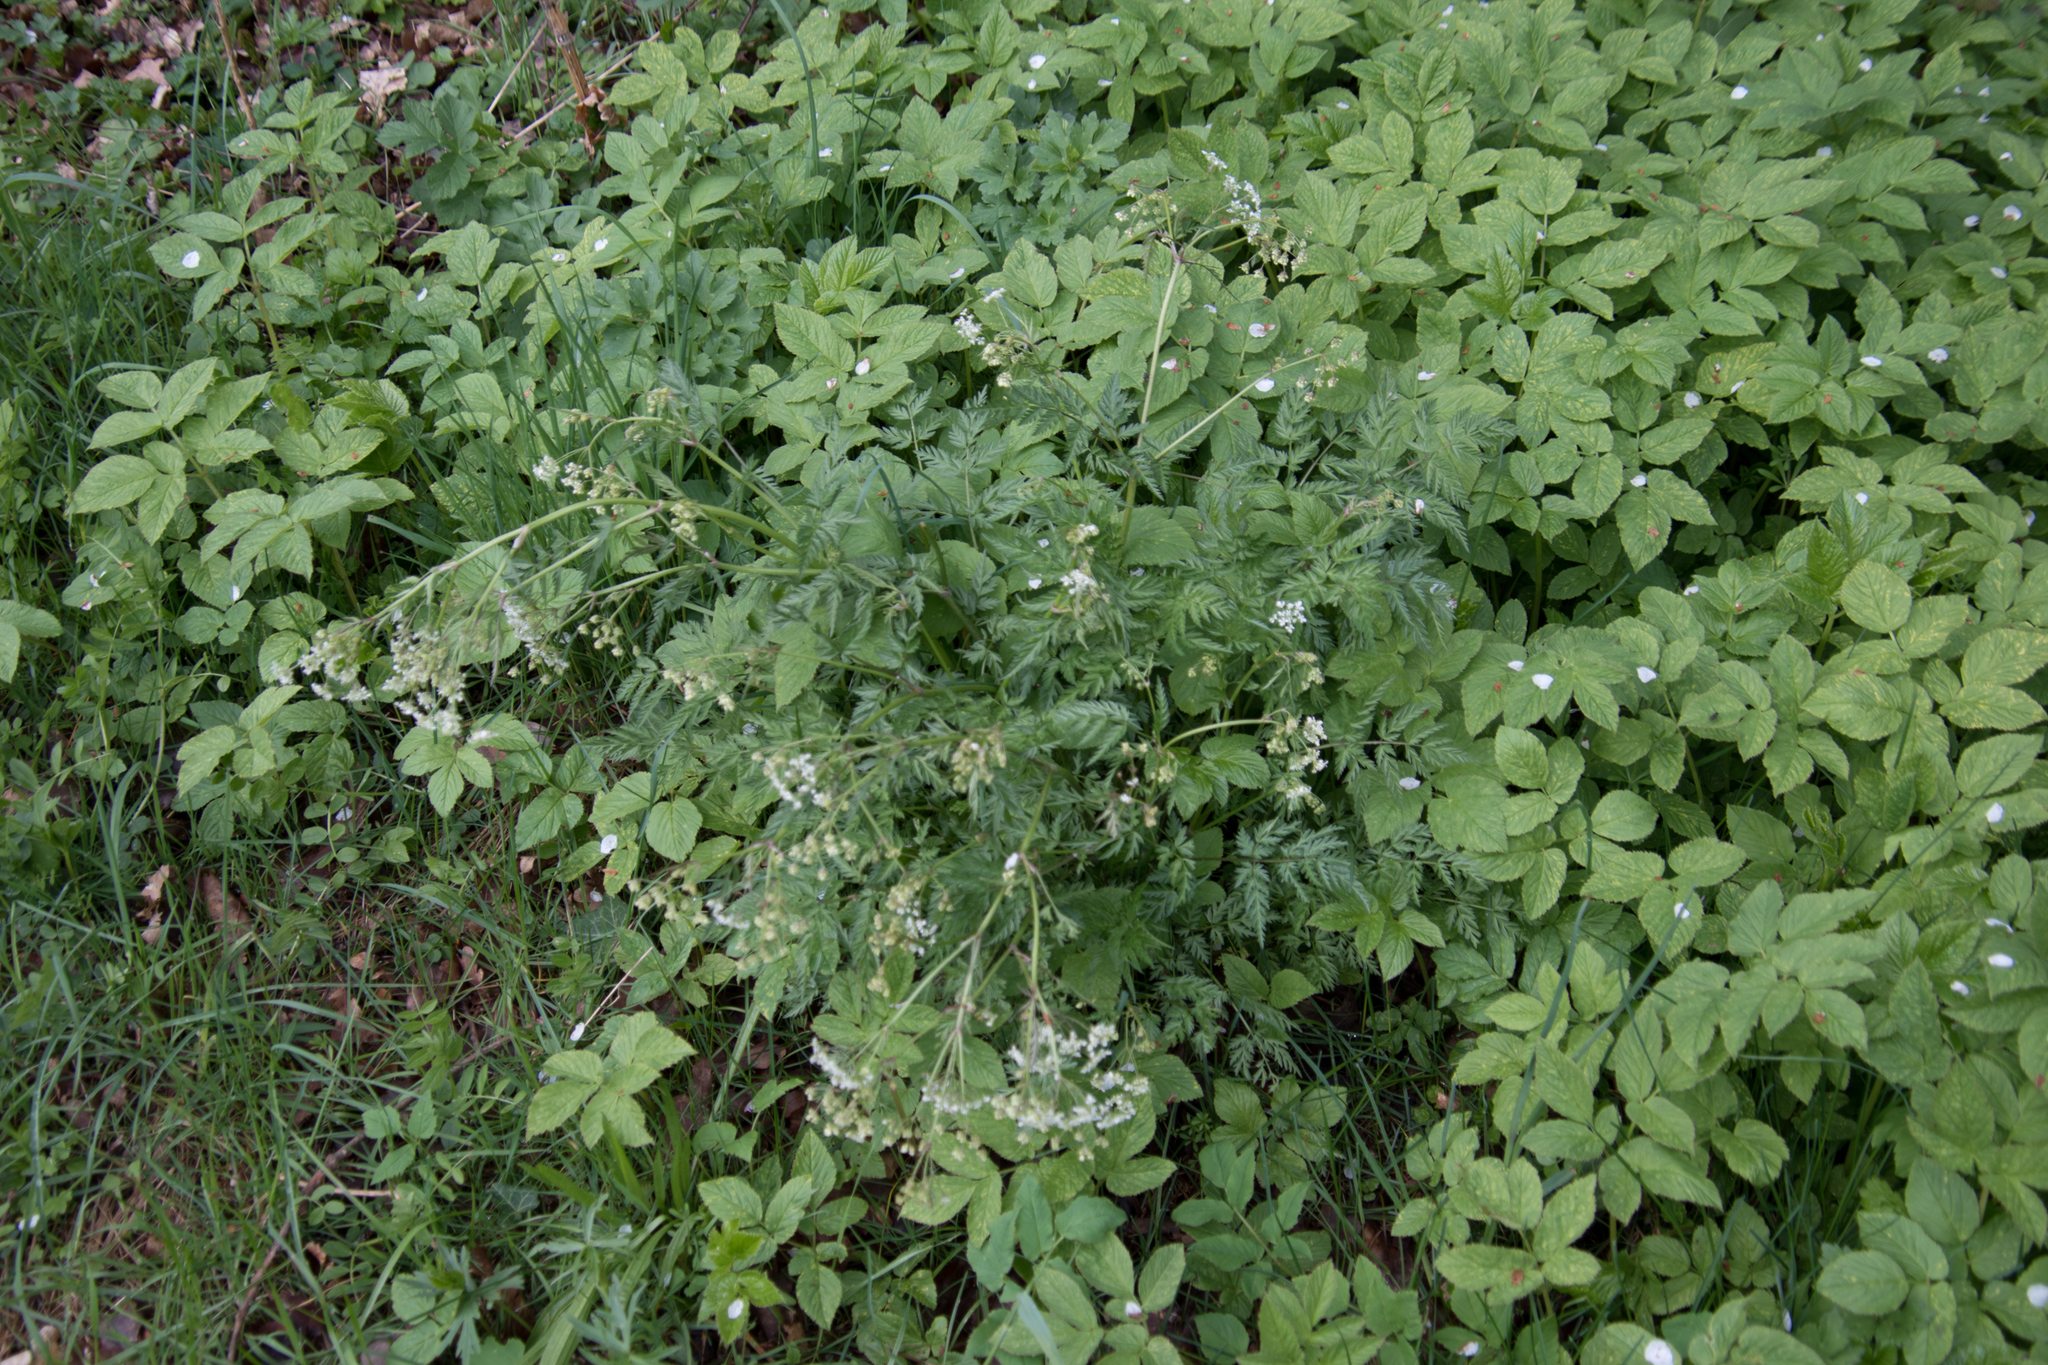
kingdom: Plantae
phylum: Tracheophyta
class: Magnoliopsida
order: Apiales
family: Apiaceae
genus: Anthriscus
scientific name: Anthriscus sylvestris
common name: Cow parsley
